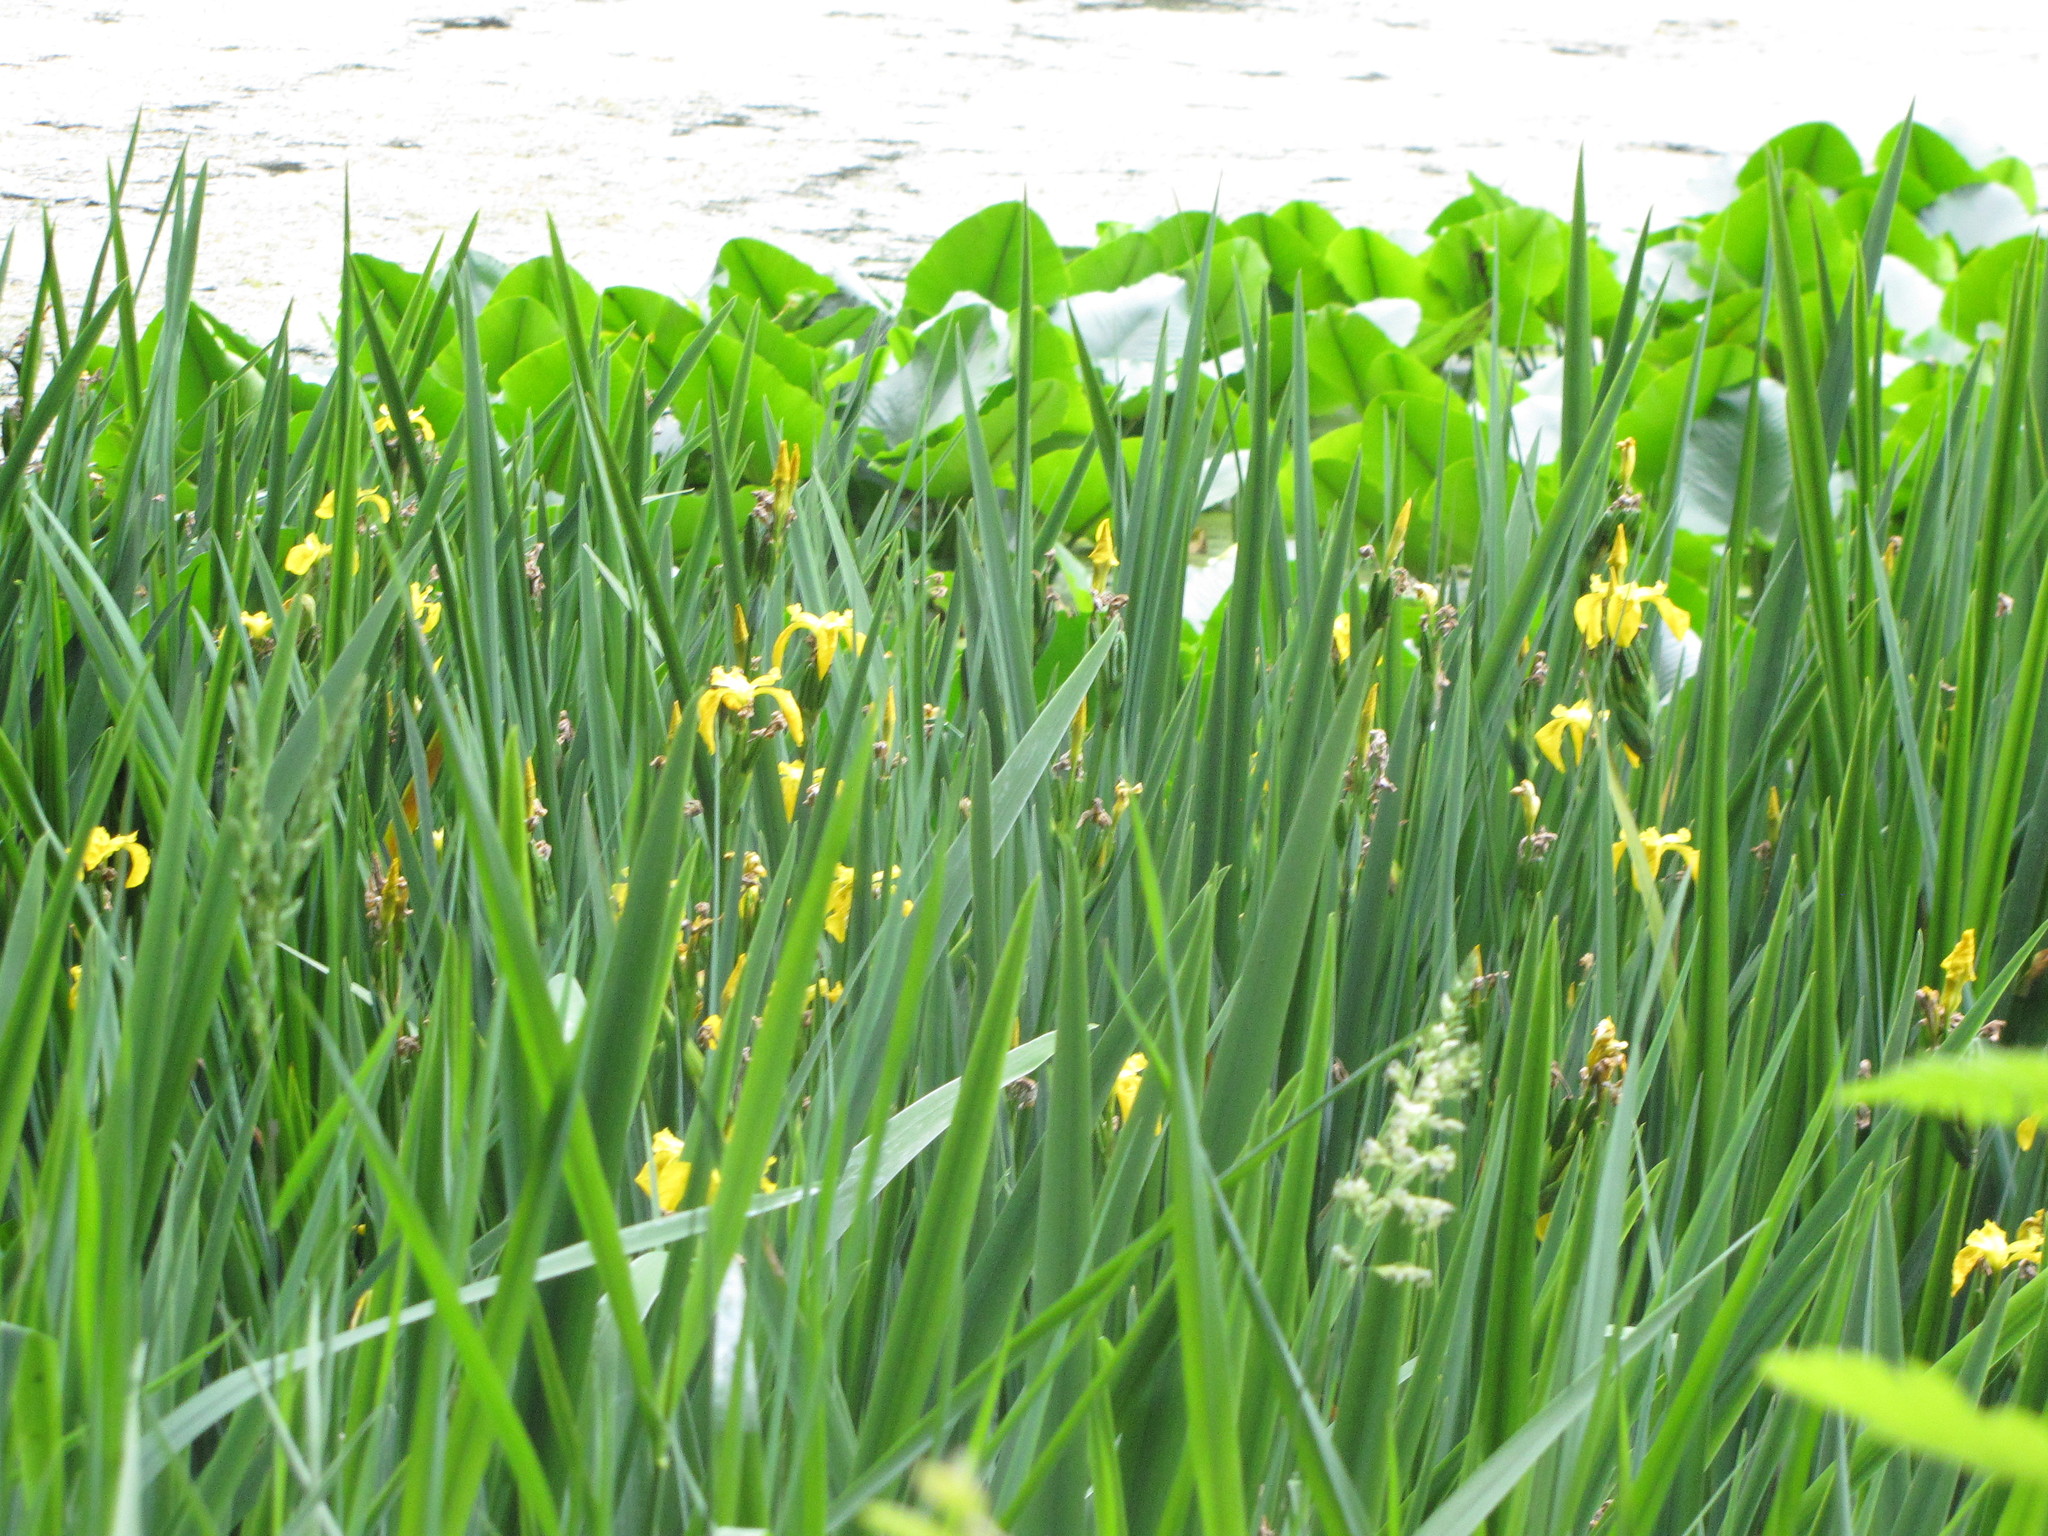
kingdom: Plantae
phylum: Tracheophyta
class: Liliopsida
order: Asparagales
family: Iridaceae
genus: Iris
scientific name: Iris pseudacorus
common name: Yellow flag
